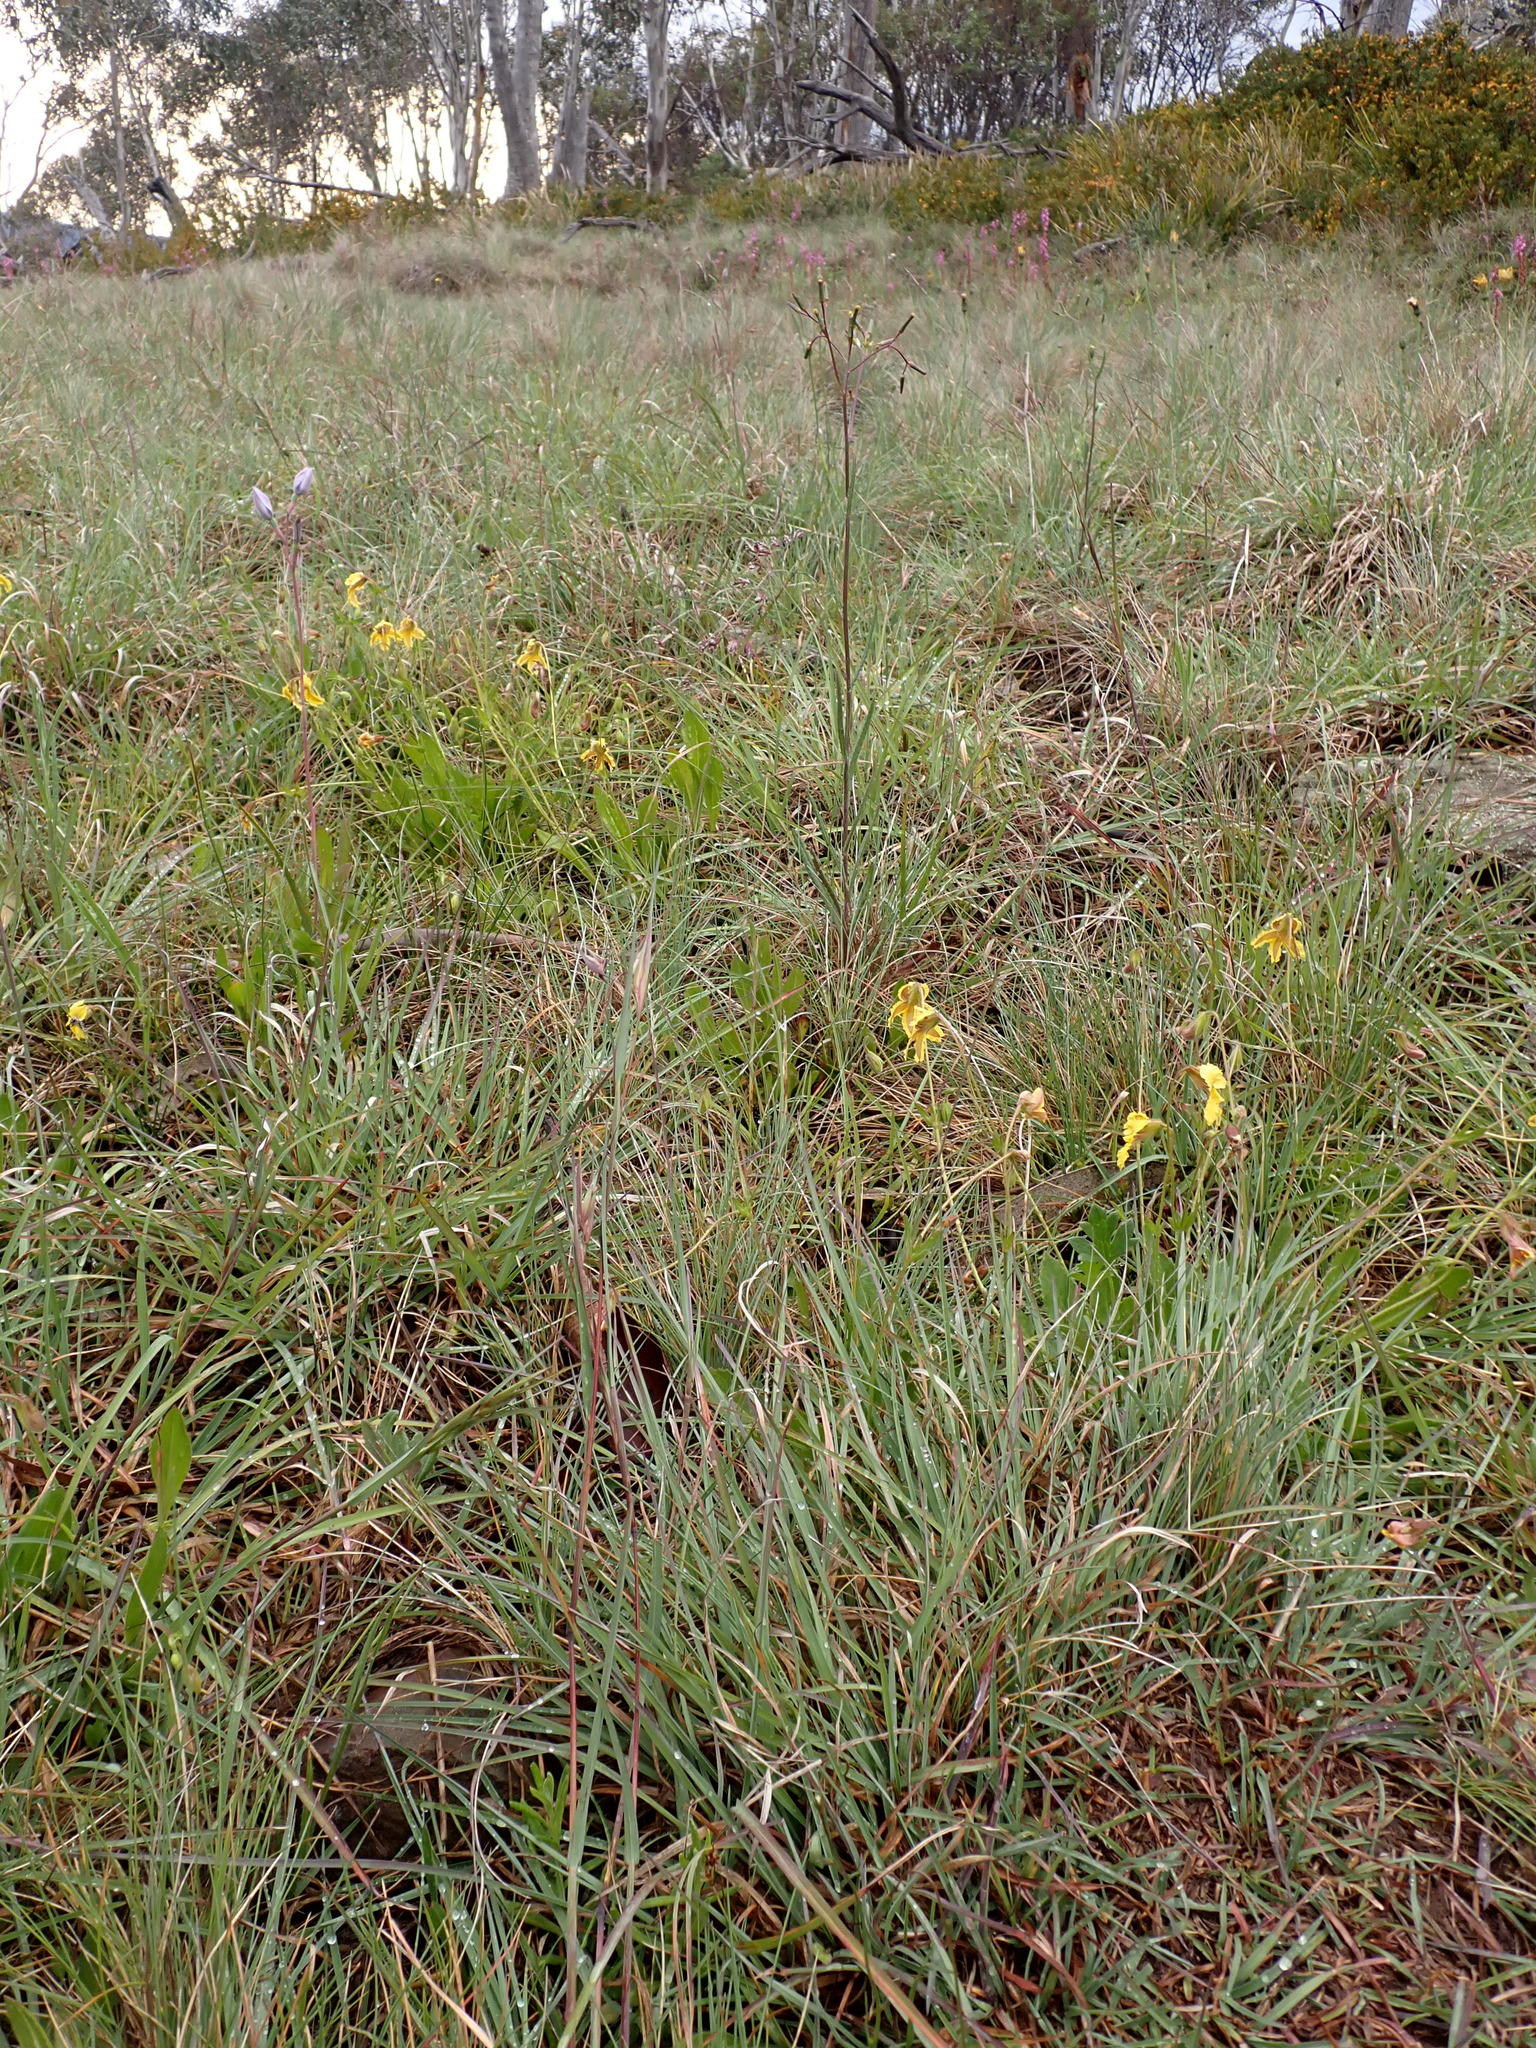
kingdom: Plantae
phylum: Tracheophyta
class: Liliopsida
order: Poales
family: Poaceae
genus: Themeda
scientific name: Themeda triandra
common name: Kangaroo grass
